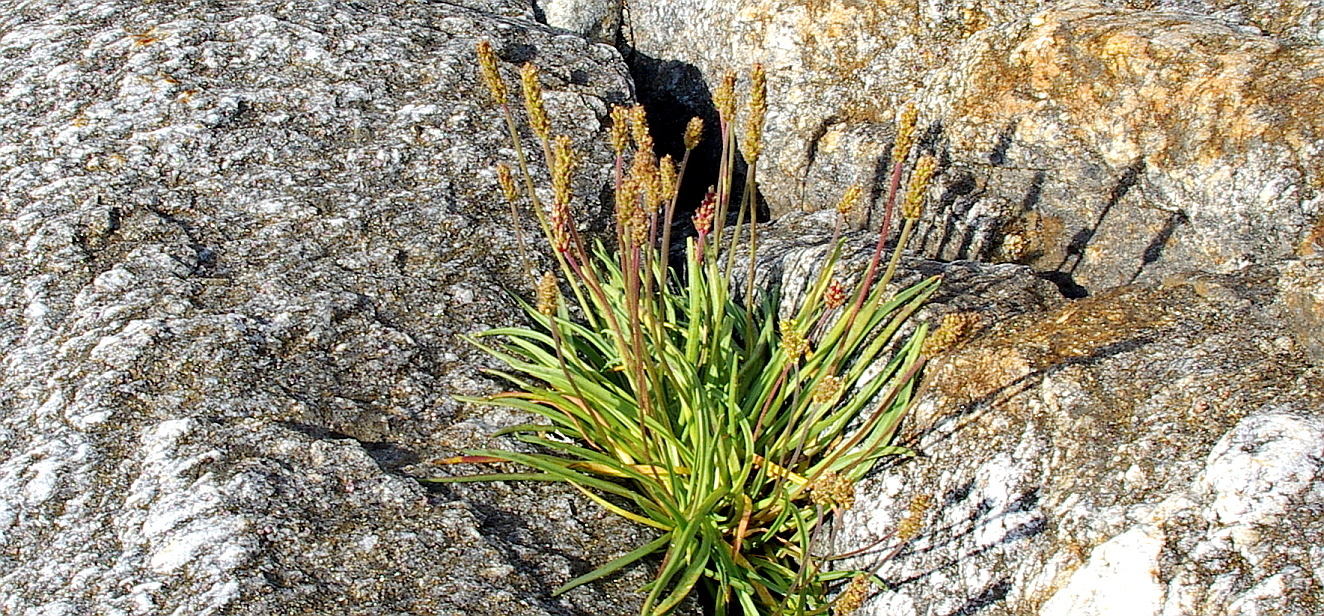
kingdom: Plantae
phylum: Tracheophyta
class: Magnoliopsida
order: Lamiales
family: Plantaginaceae
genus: Plantago
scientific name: Plantago maritima
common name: Sea plantain
